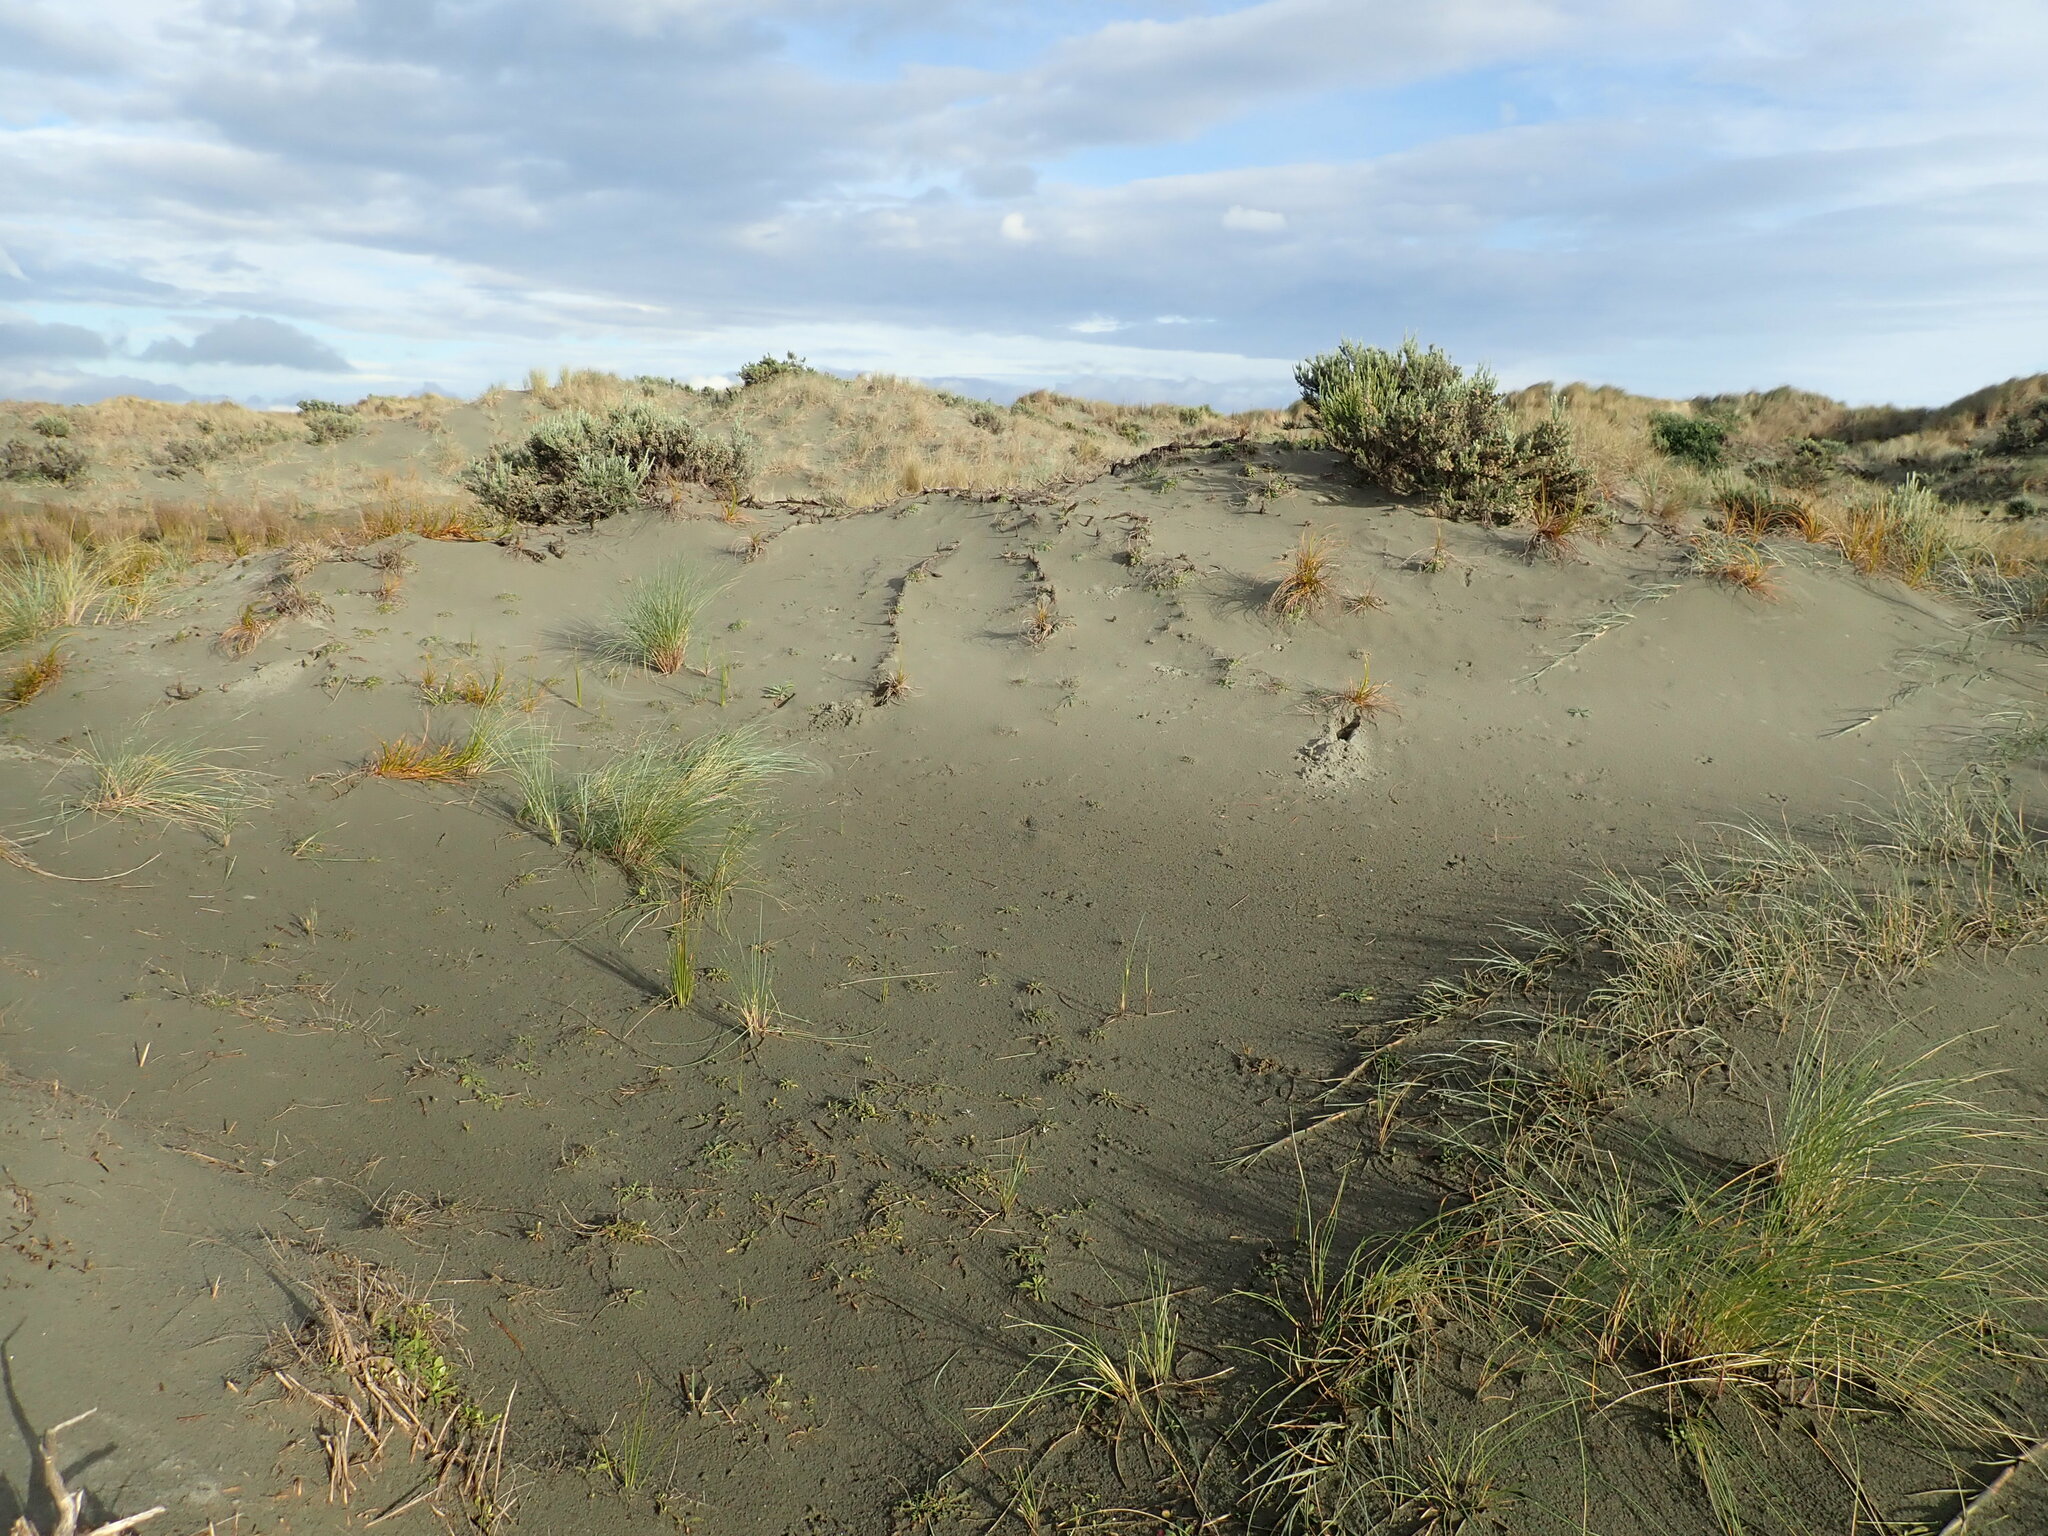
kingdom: Plantae
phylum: Tracheophyta
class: Liliopsida
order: Poales
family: Cyperaceae
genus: Ficinia
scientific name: Ficinia spiralis
